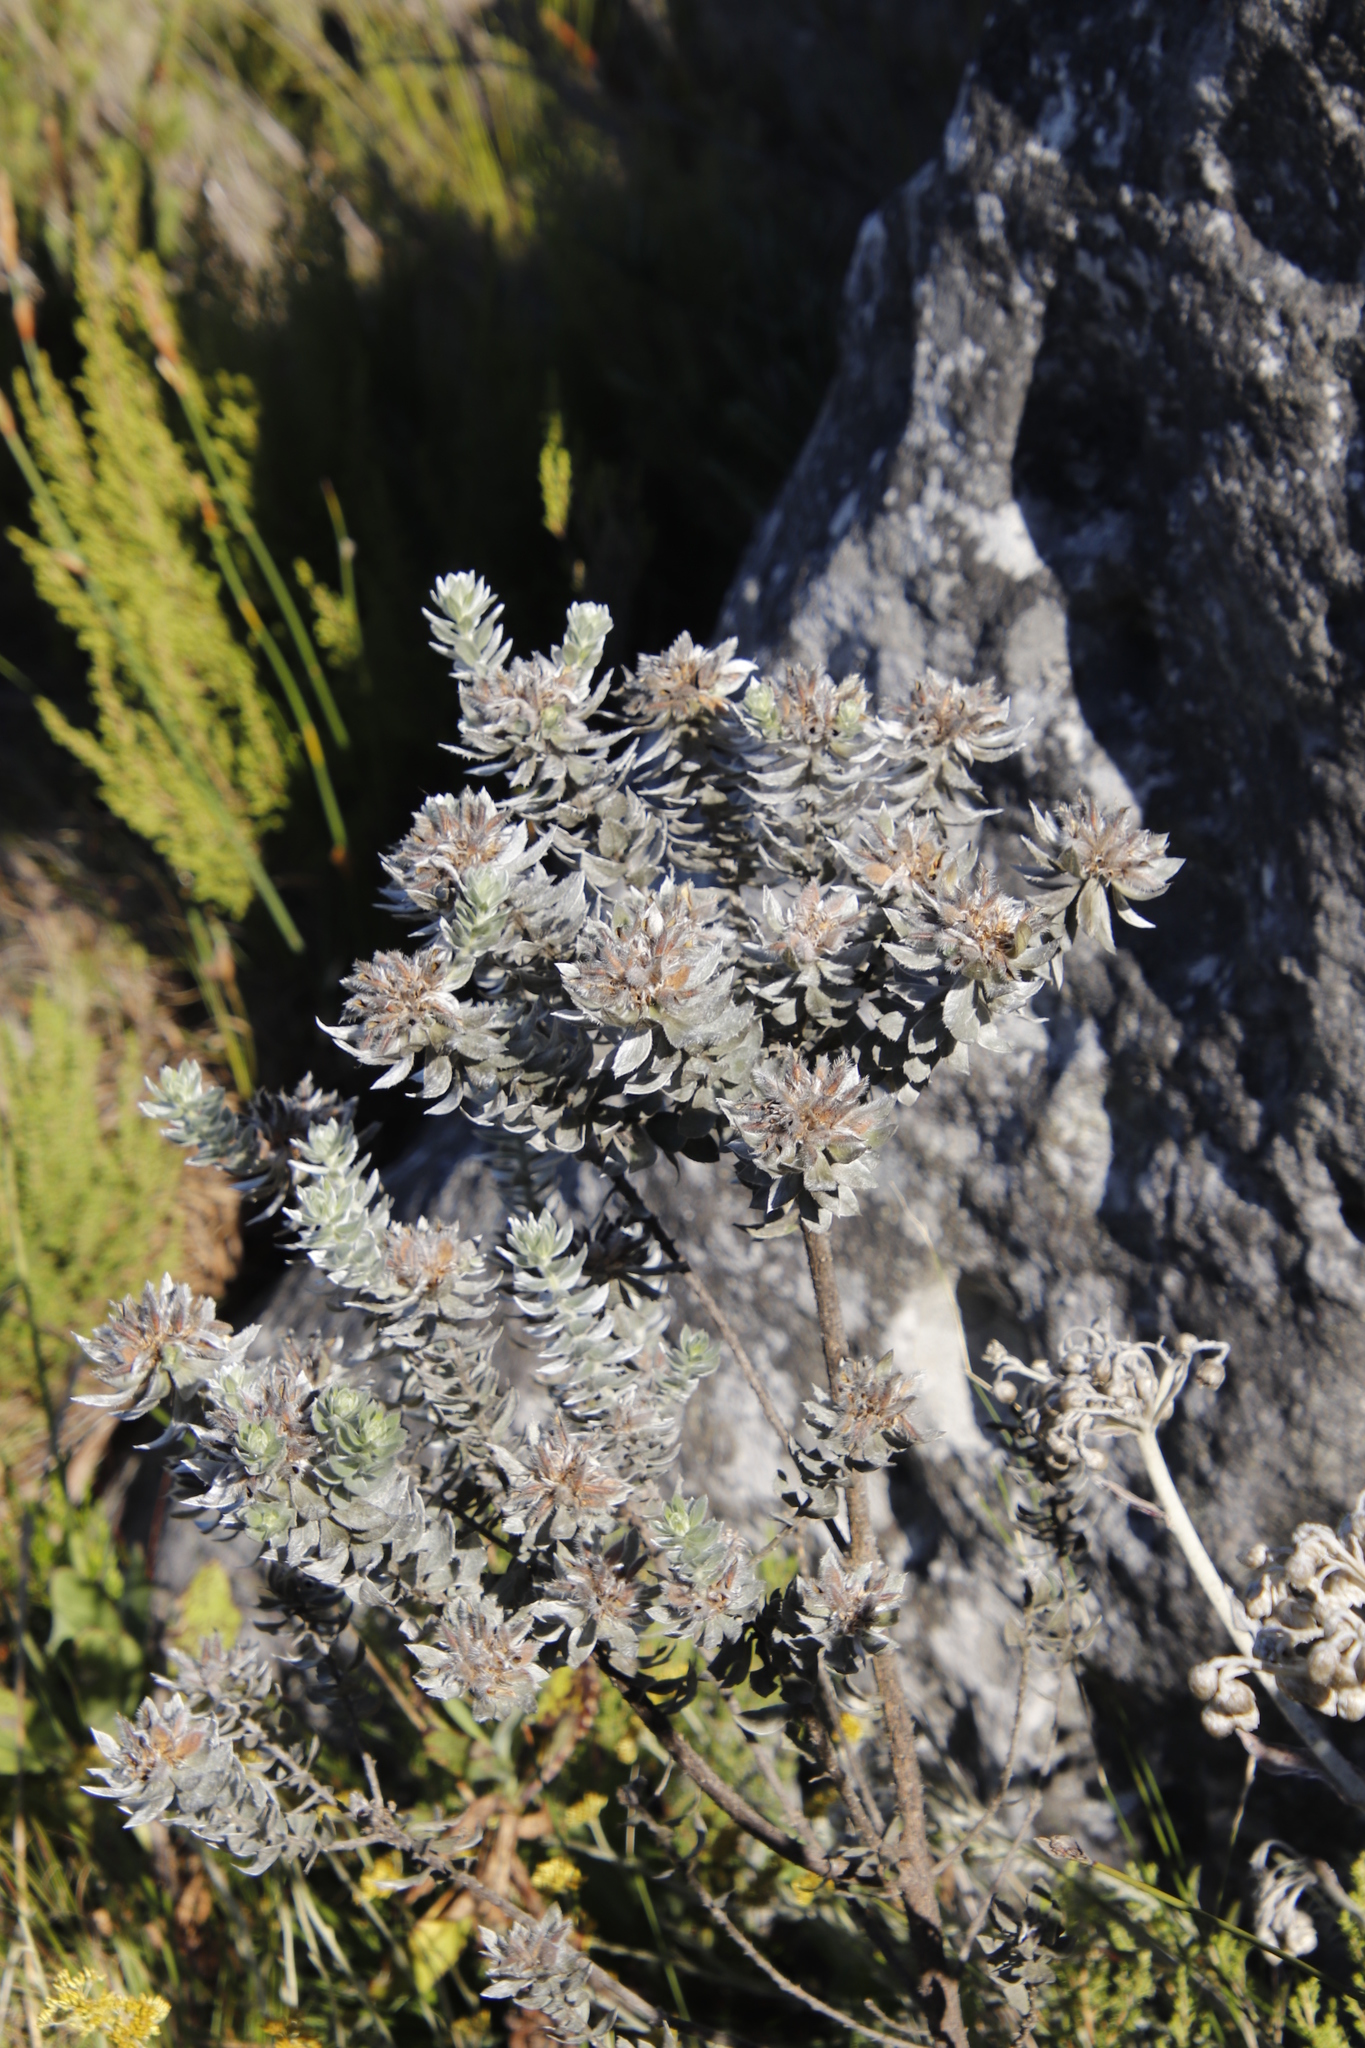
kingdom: Plantae
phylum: Tracheophyta
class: Magnoliopsida
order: Fabales
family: Fabaceae
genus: Xiphotheca
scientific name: Xiphotheca fruticosa
